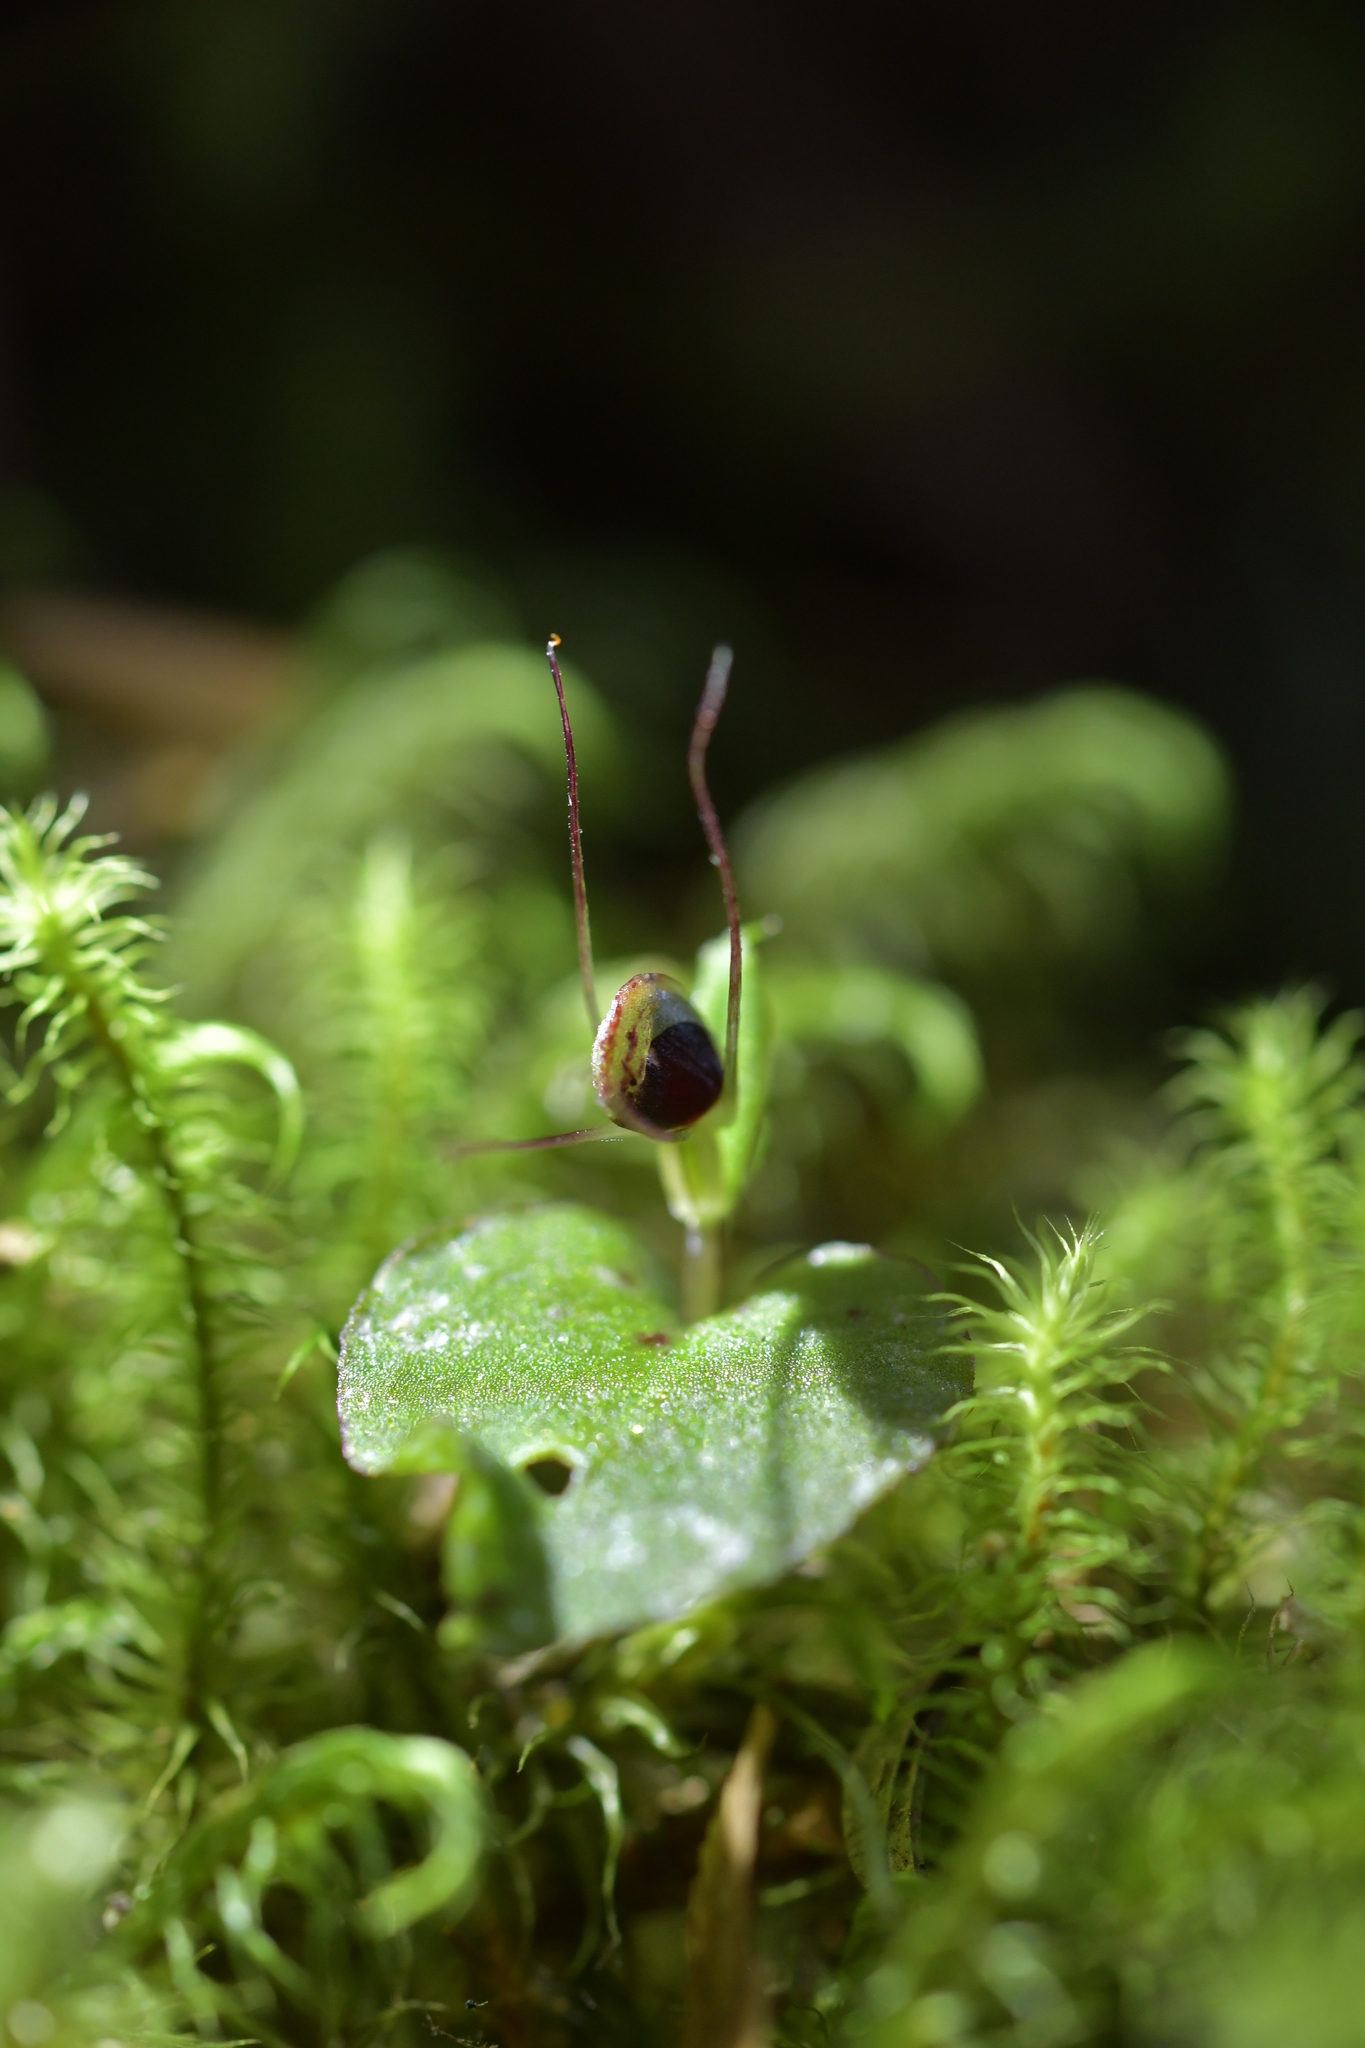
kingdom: Plantae
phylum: Tracheophyta
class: Liliopsida
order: Asparagales
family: Orchidaceae
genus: Corybas
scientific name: Corybas oblongus
